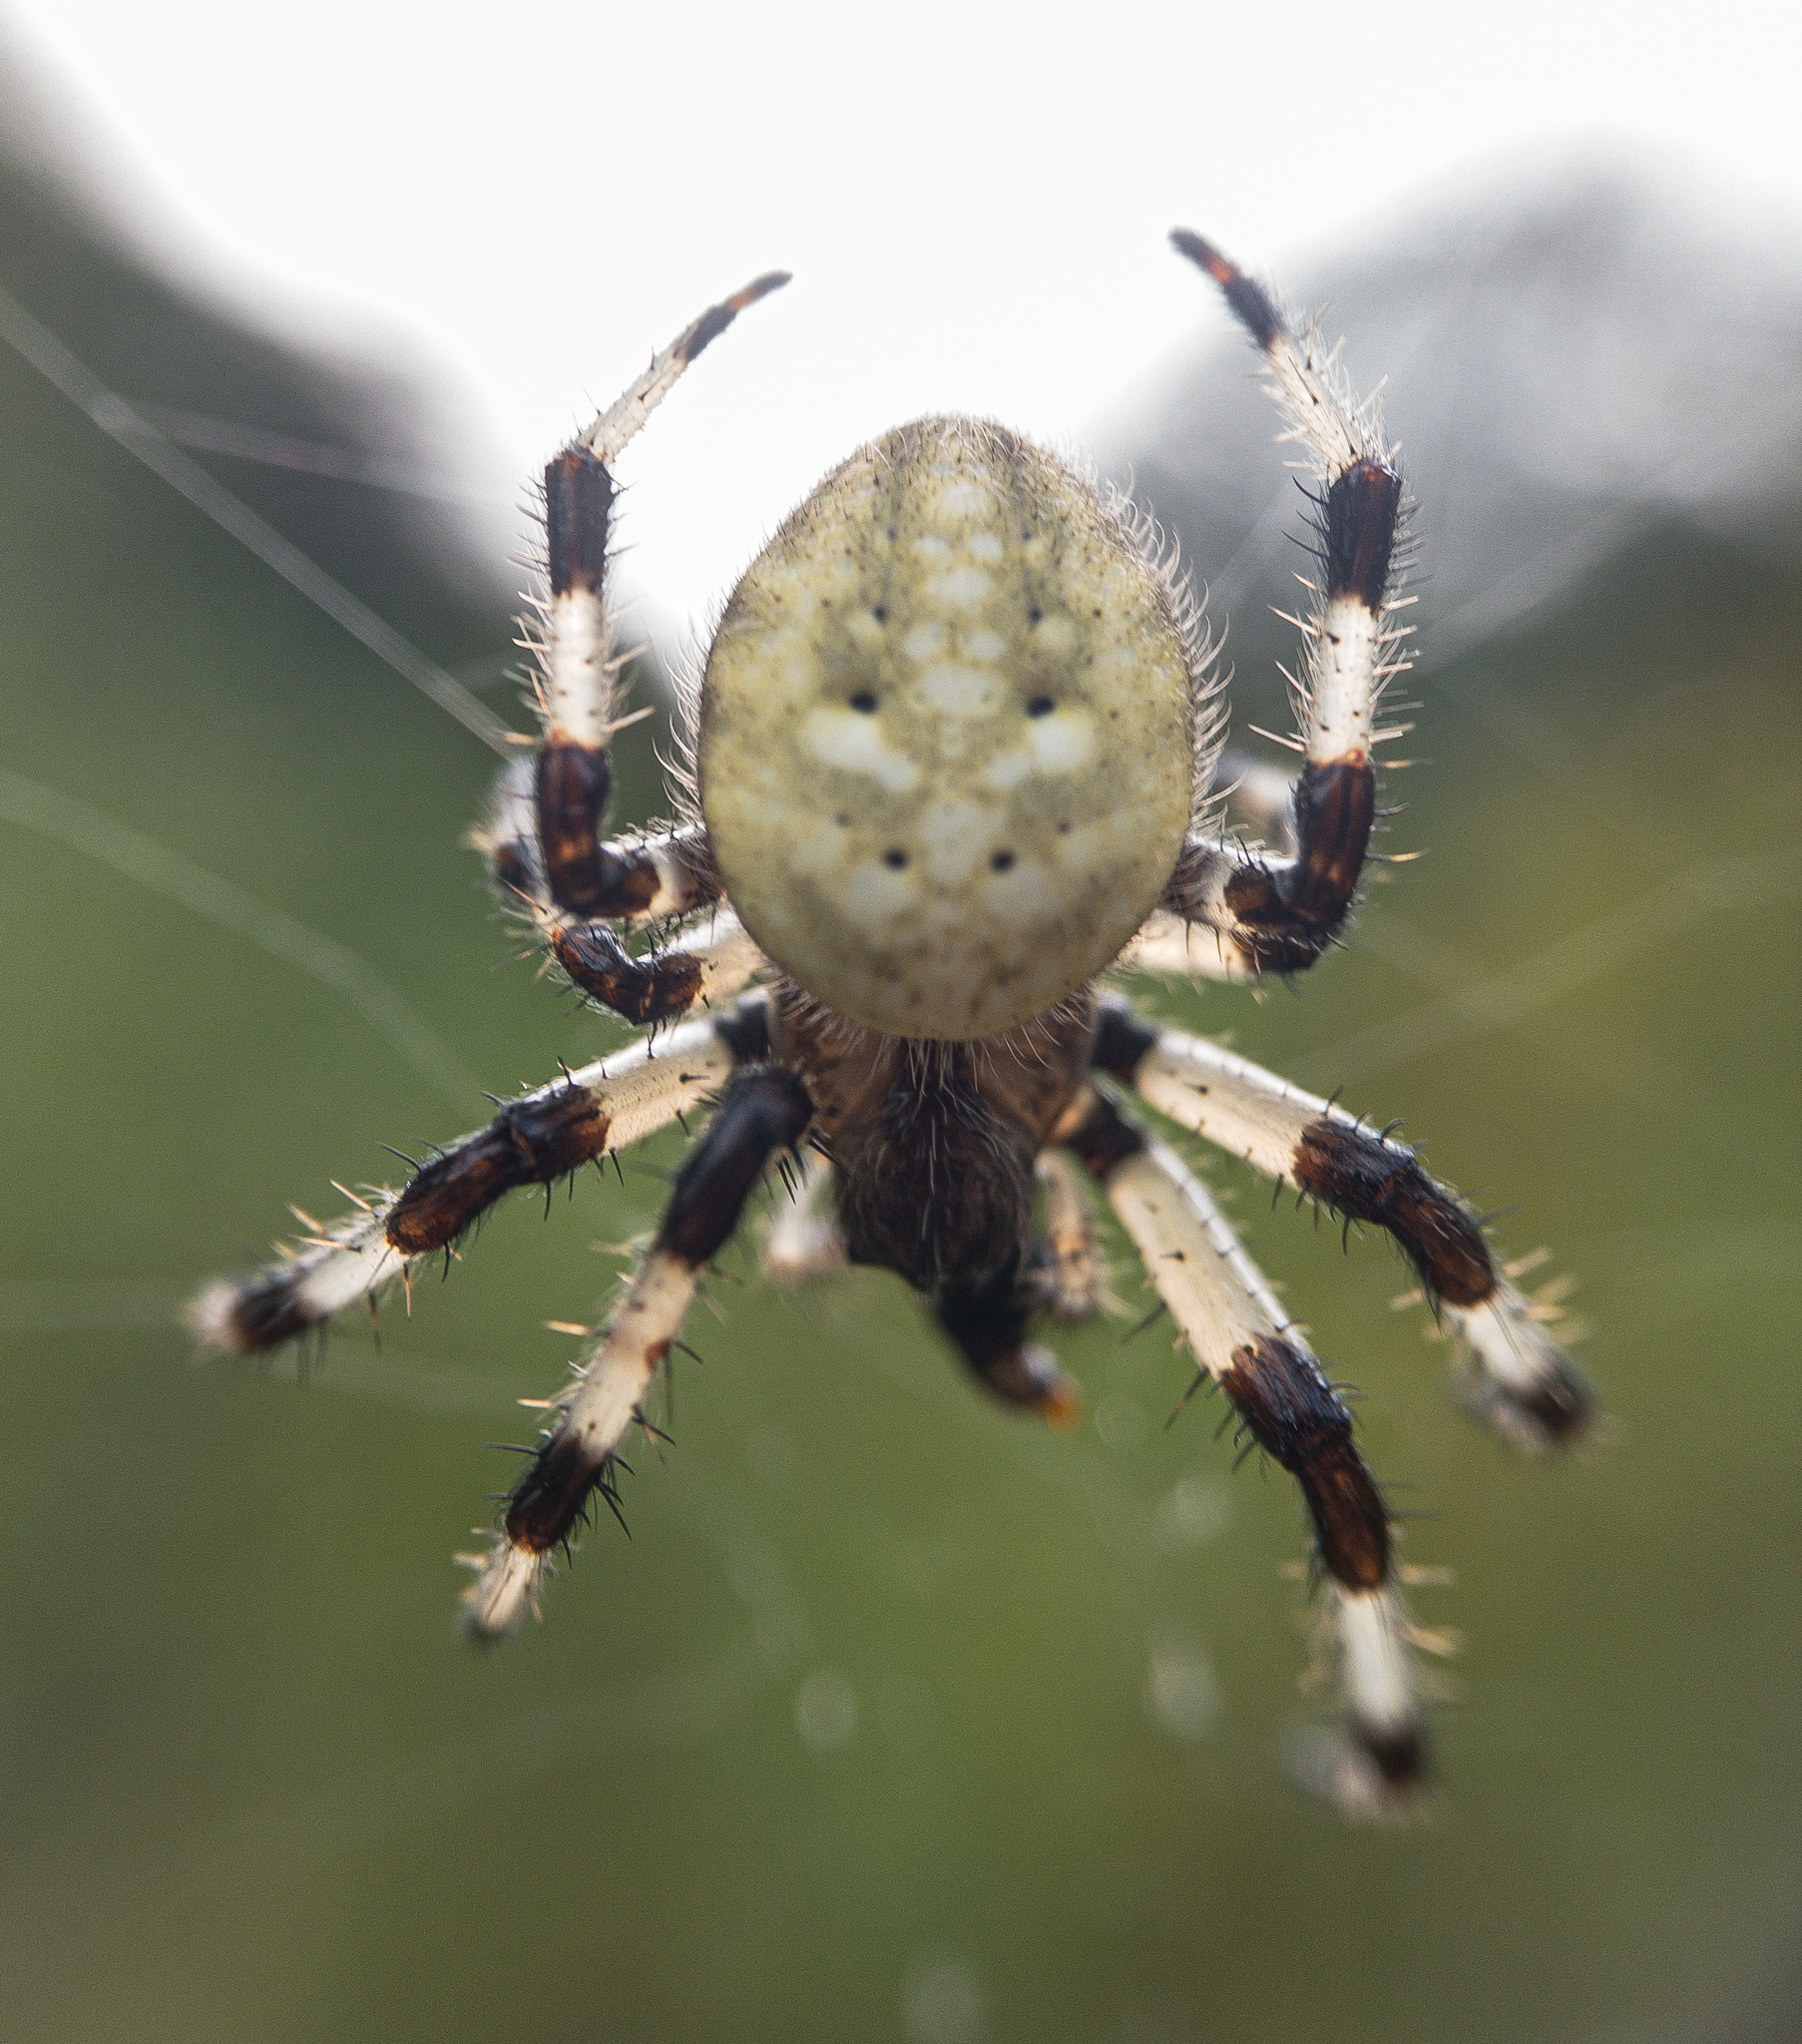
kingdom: Animalia
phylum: Arthropoda
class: Arachnida
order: Araneae
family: Araneidae
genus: Araneus
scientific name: Araneus trifolium
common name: Shamrock orbweaver
